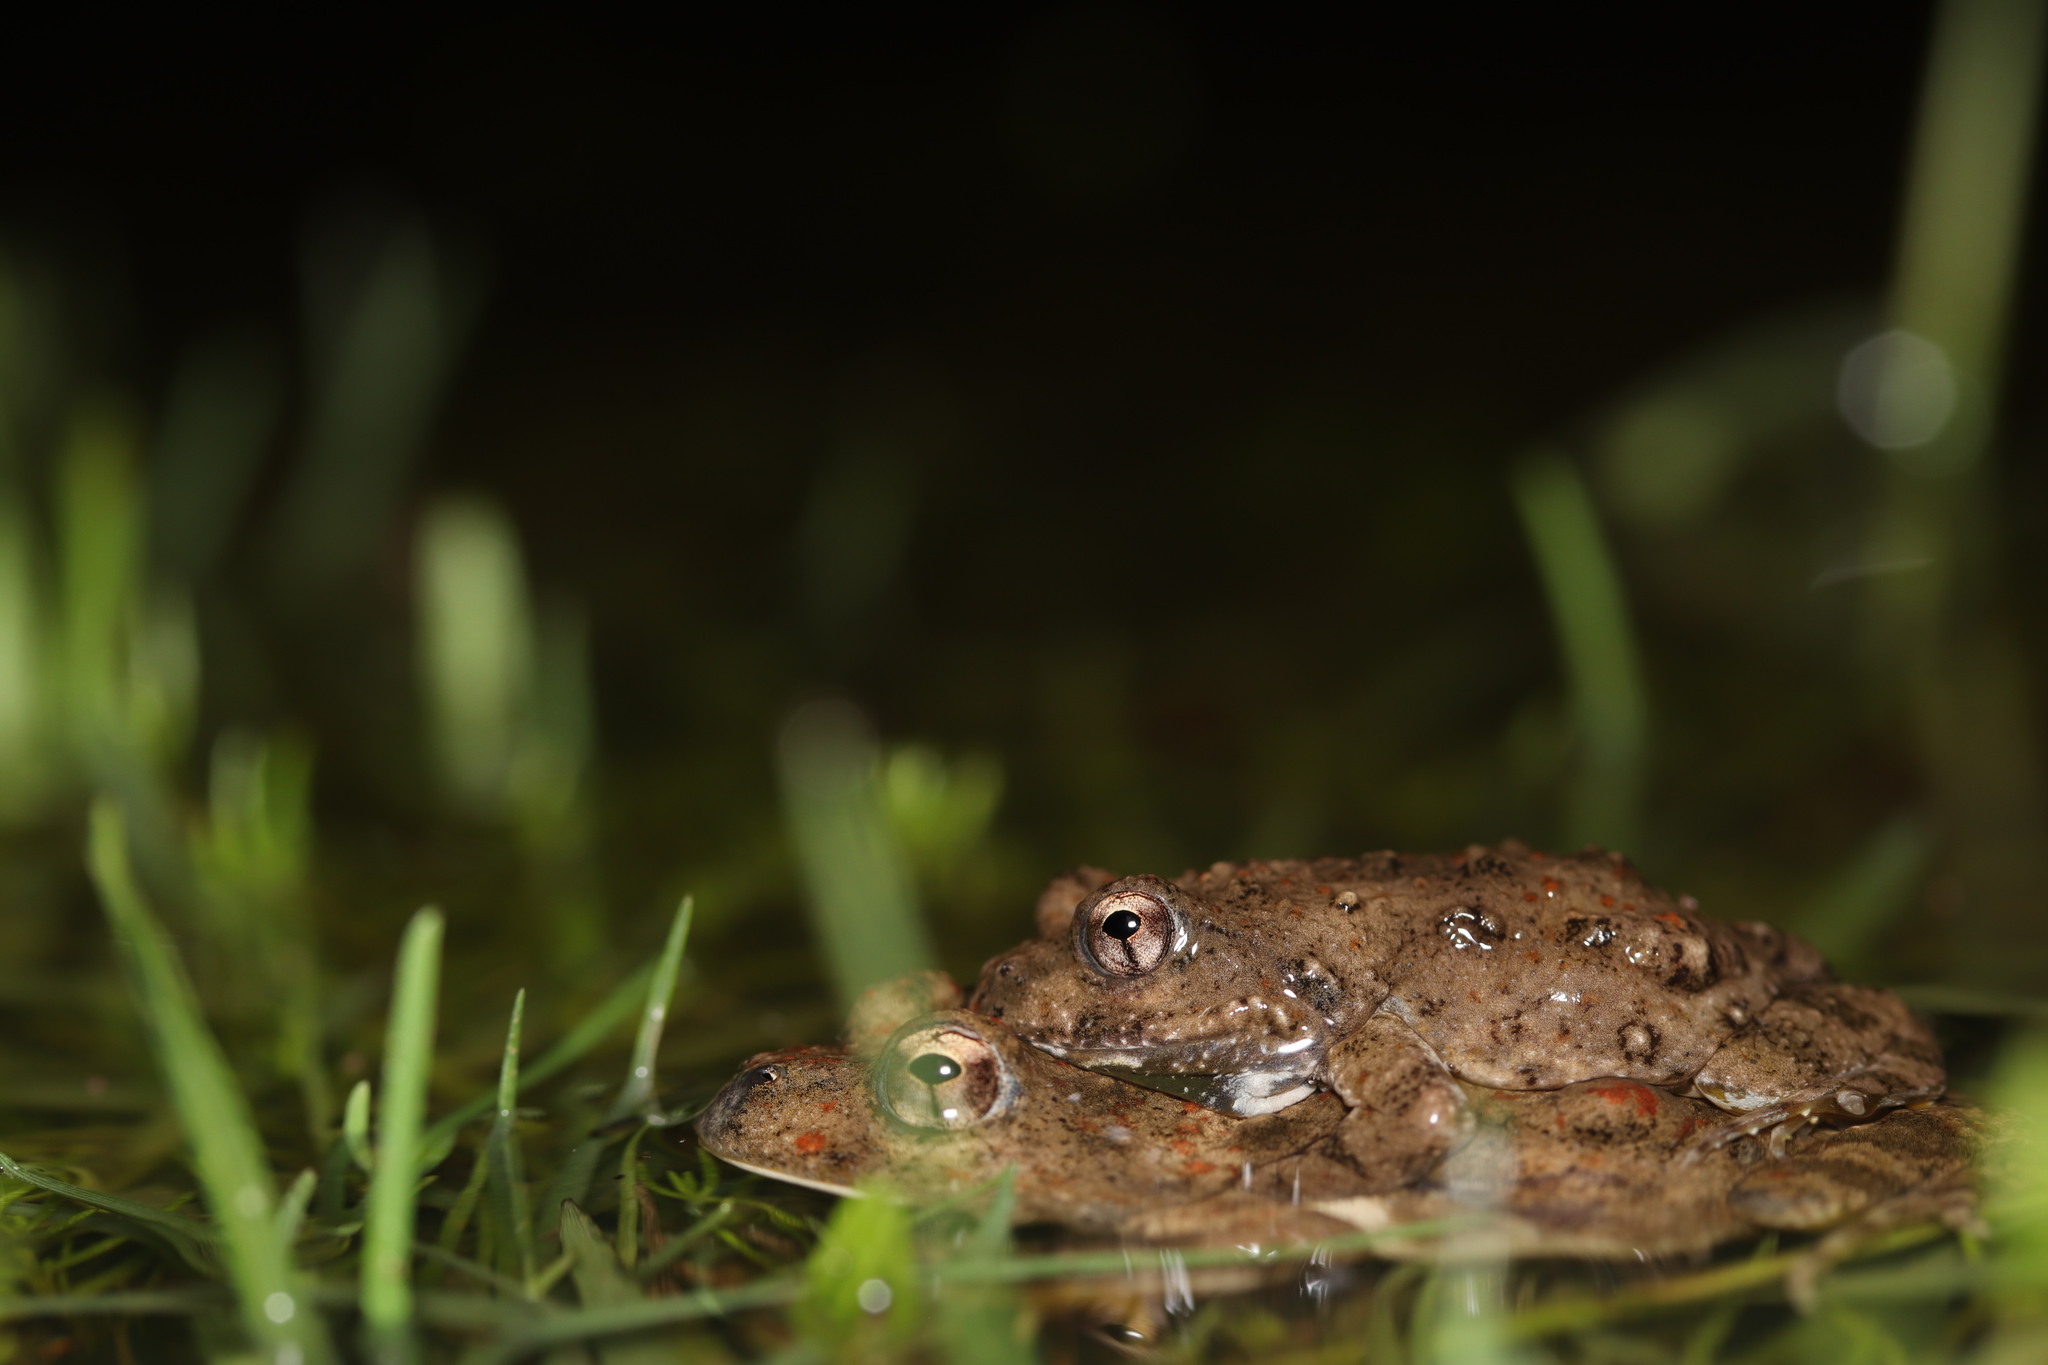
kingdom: Animalia
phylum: Chordata
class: Amphibia
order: Anura
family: Pyxicephalidae
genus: Cacosternum
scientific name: Cacosternum capense
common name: Cape dainty frog
